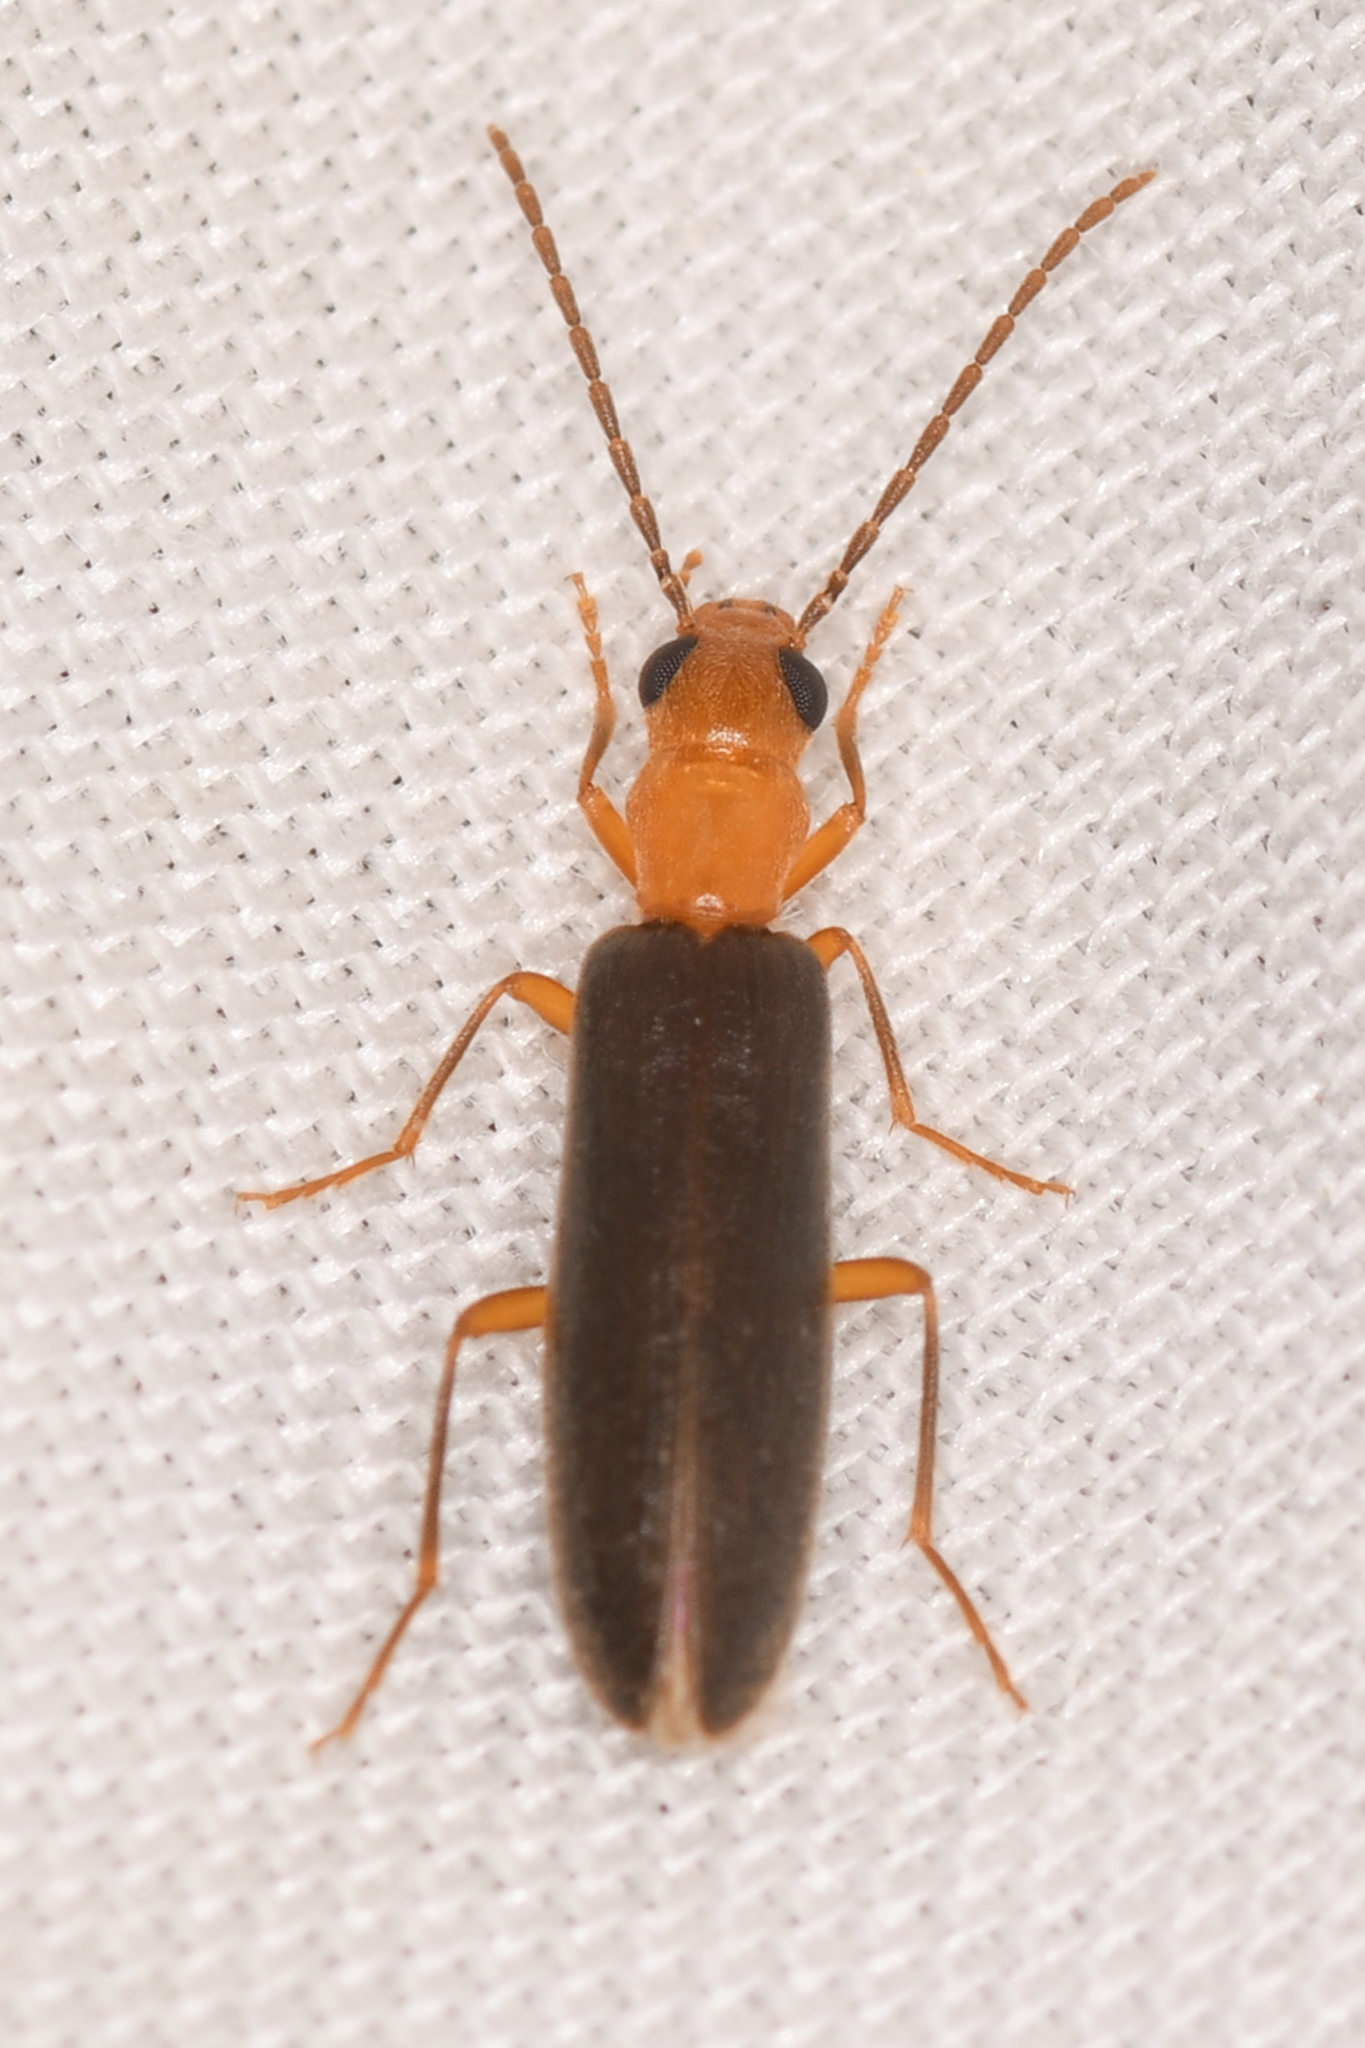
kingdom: Animalia
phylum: Arthropoda
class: Insecta
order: Coleoptera
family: Oedemeridae
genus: Xanthochroina
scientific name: Xanthochroina bicolor
